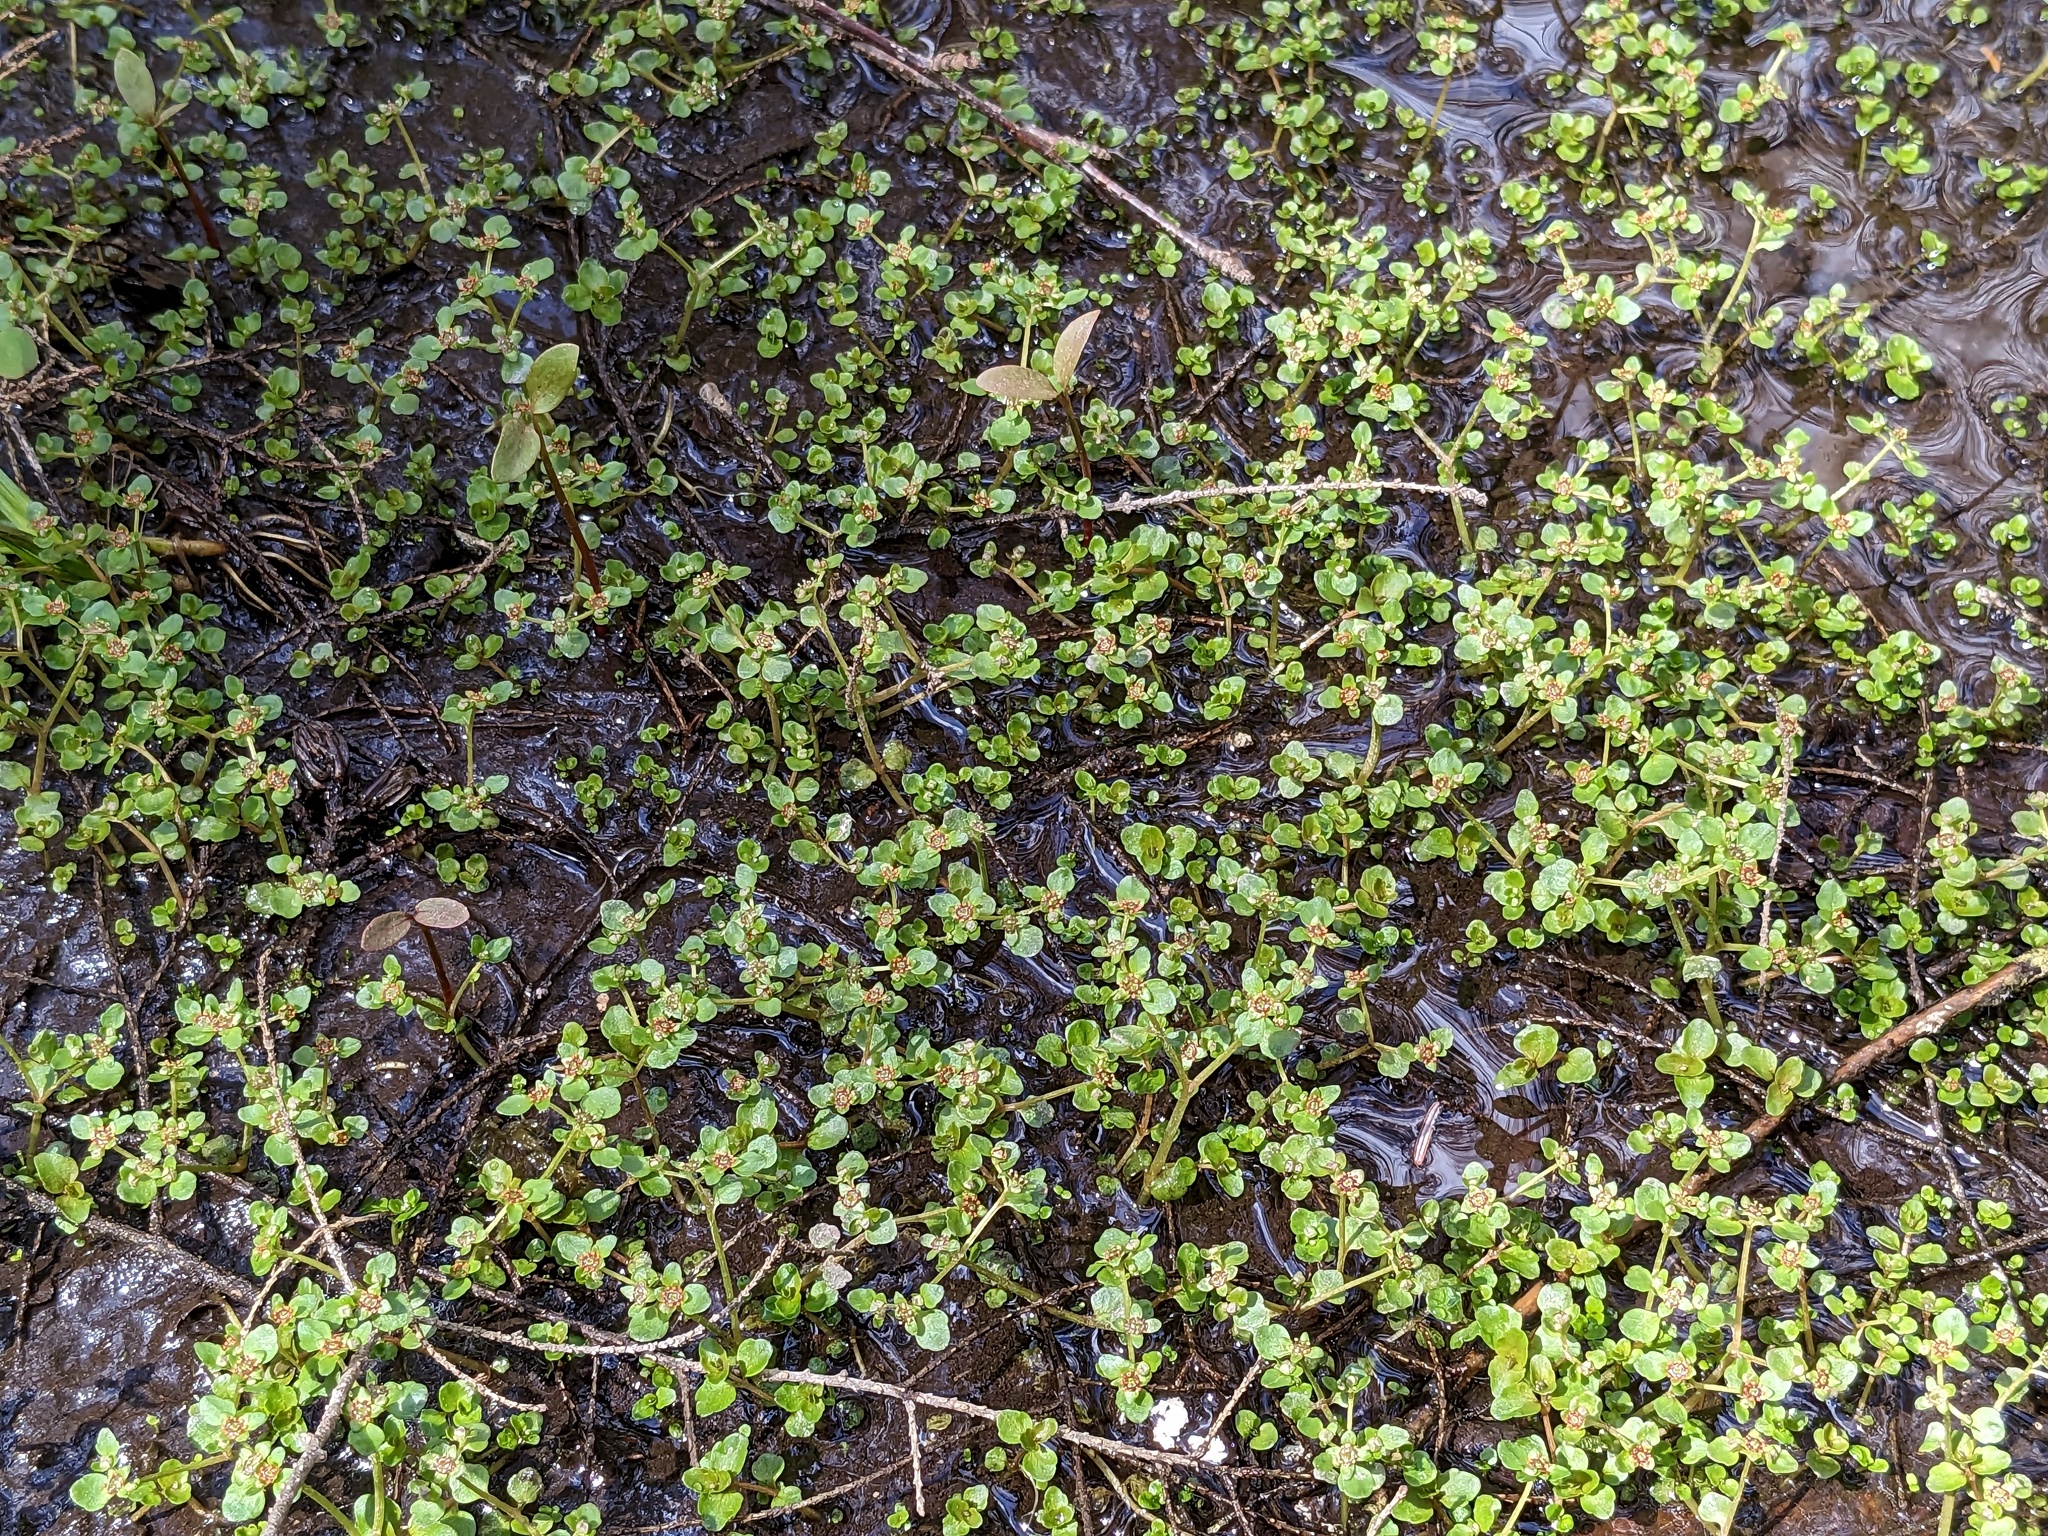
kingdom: Plantae
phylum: Tracheophyta
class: Magnoliopsida
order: Saxifragales
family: Saxifragaceae
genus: Chrysosplenium
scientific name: Chrysosplenium americanum
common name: American golden-saxifrage
